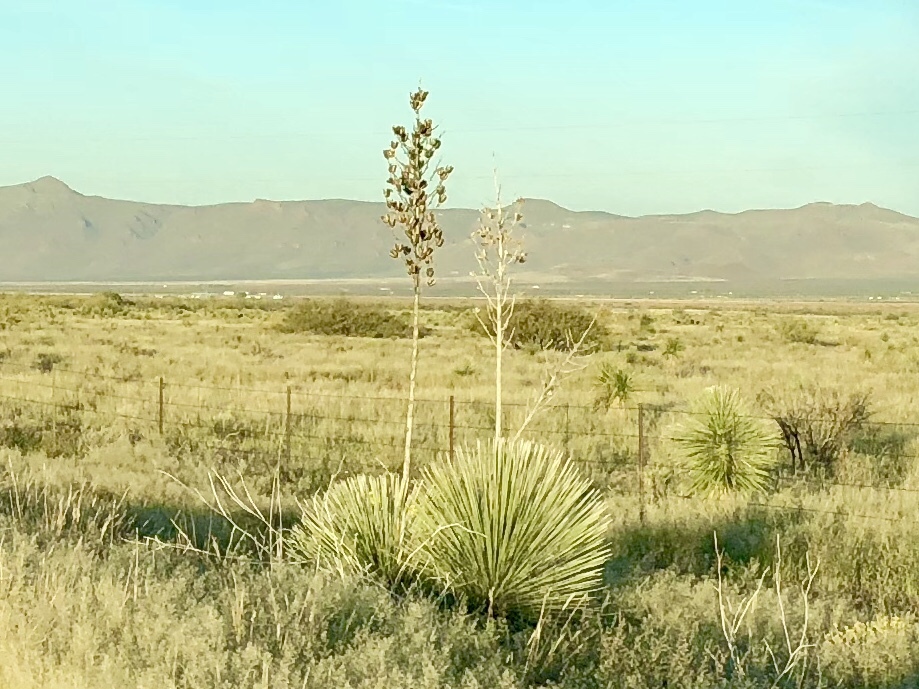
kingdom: Plantae
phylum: Tracheophyta
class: Liliopsida
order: Asparagales
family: Asparagaceae
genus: Yucca
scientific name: Yucca elata
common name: Palmella
